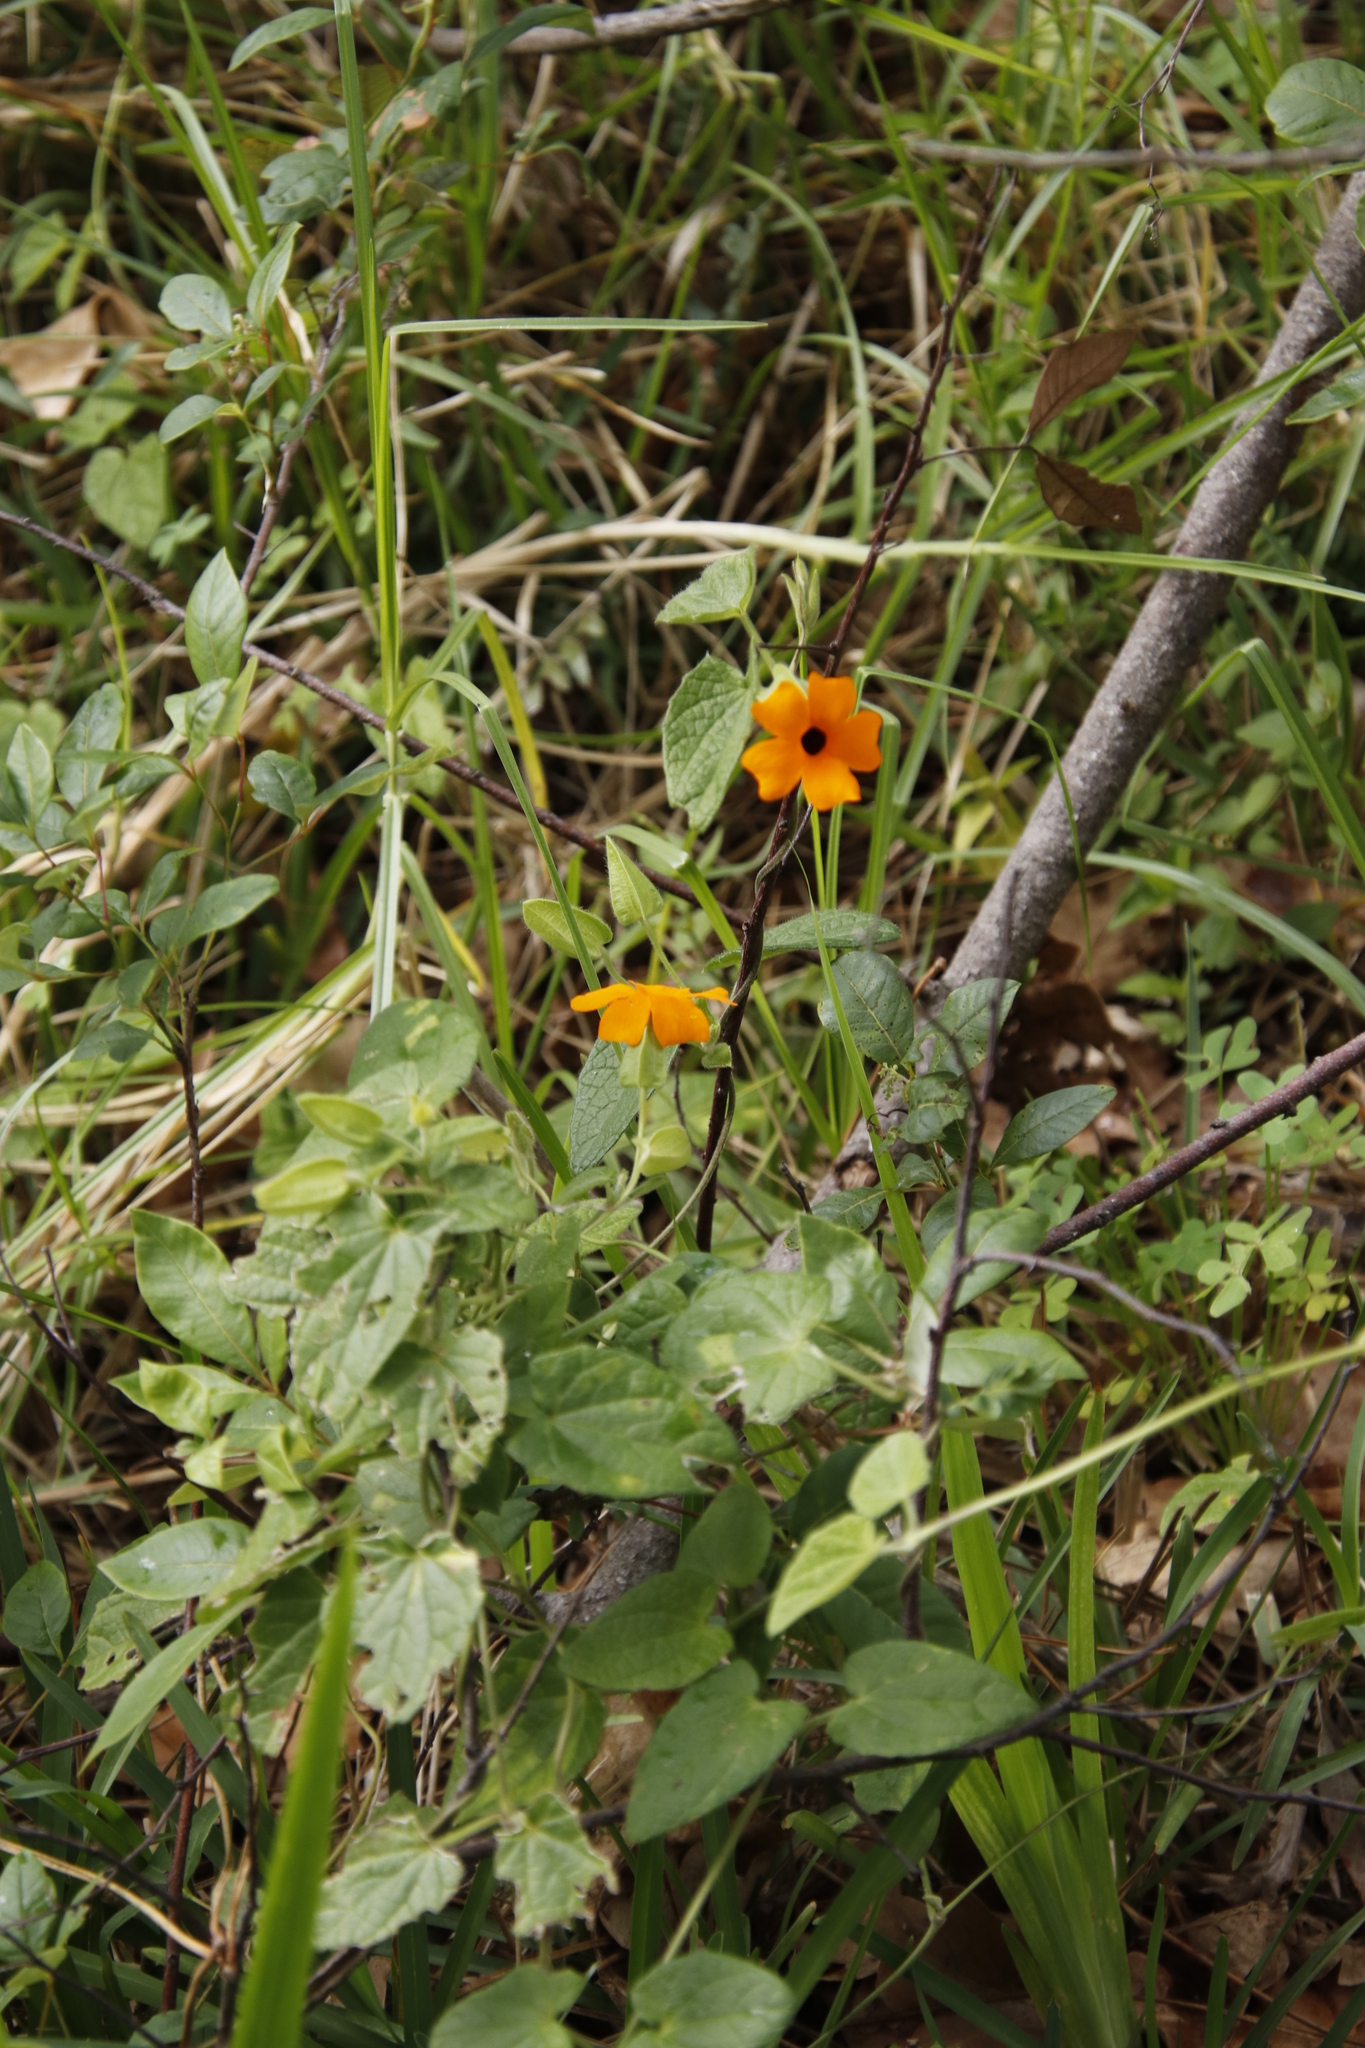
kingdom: Plantae
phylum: Tracheophyta
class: Magnoliopsida
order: Lamiales
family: Acanthaceae
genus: Thunbergia
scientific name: Thunbergia alata
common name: Blackeyed susan vine
